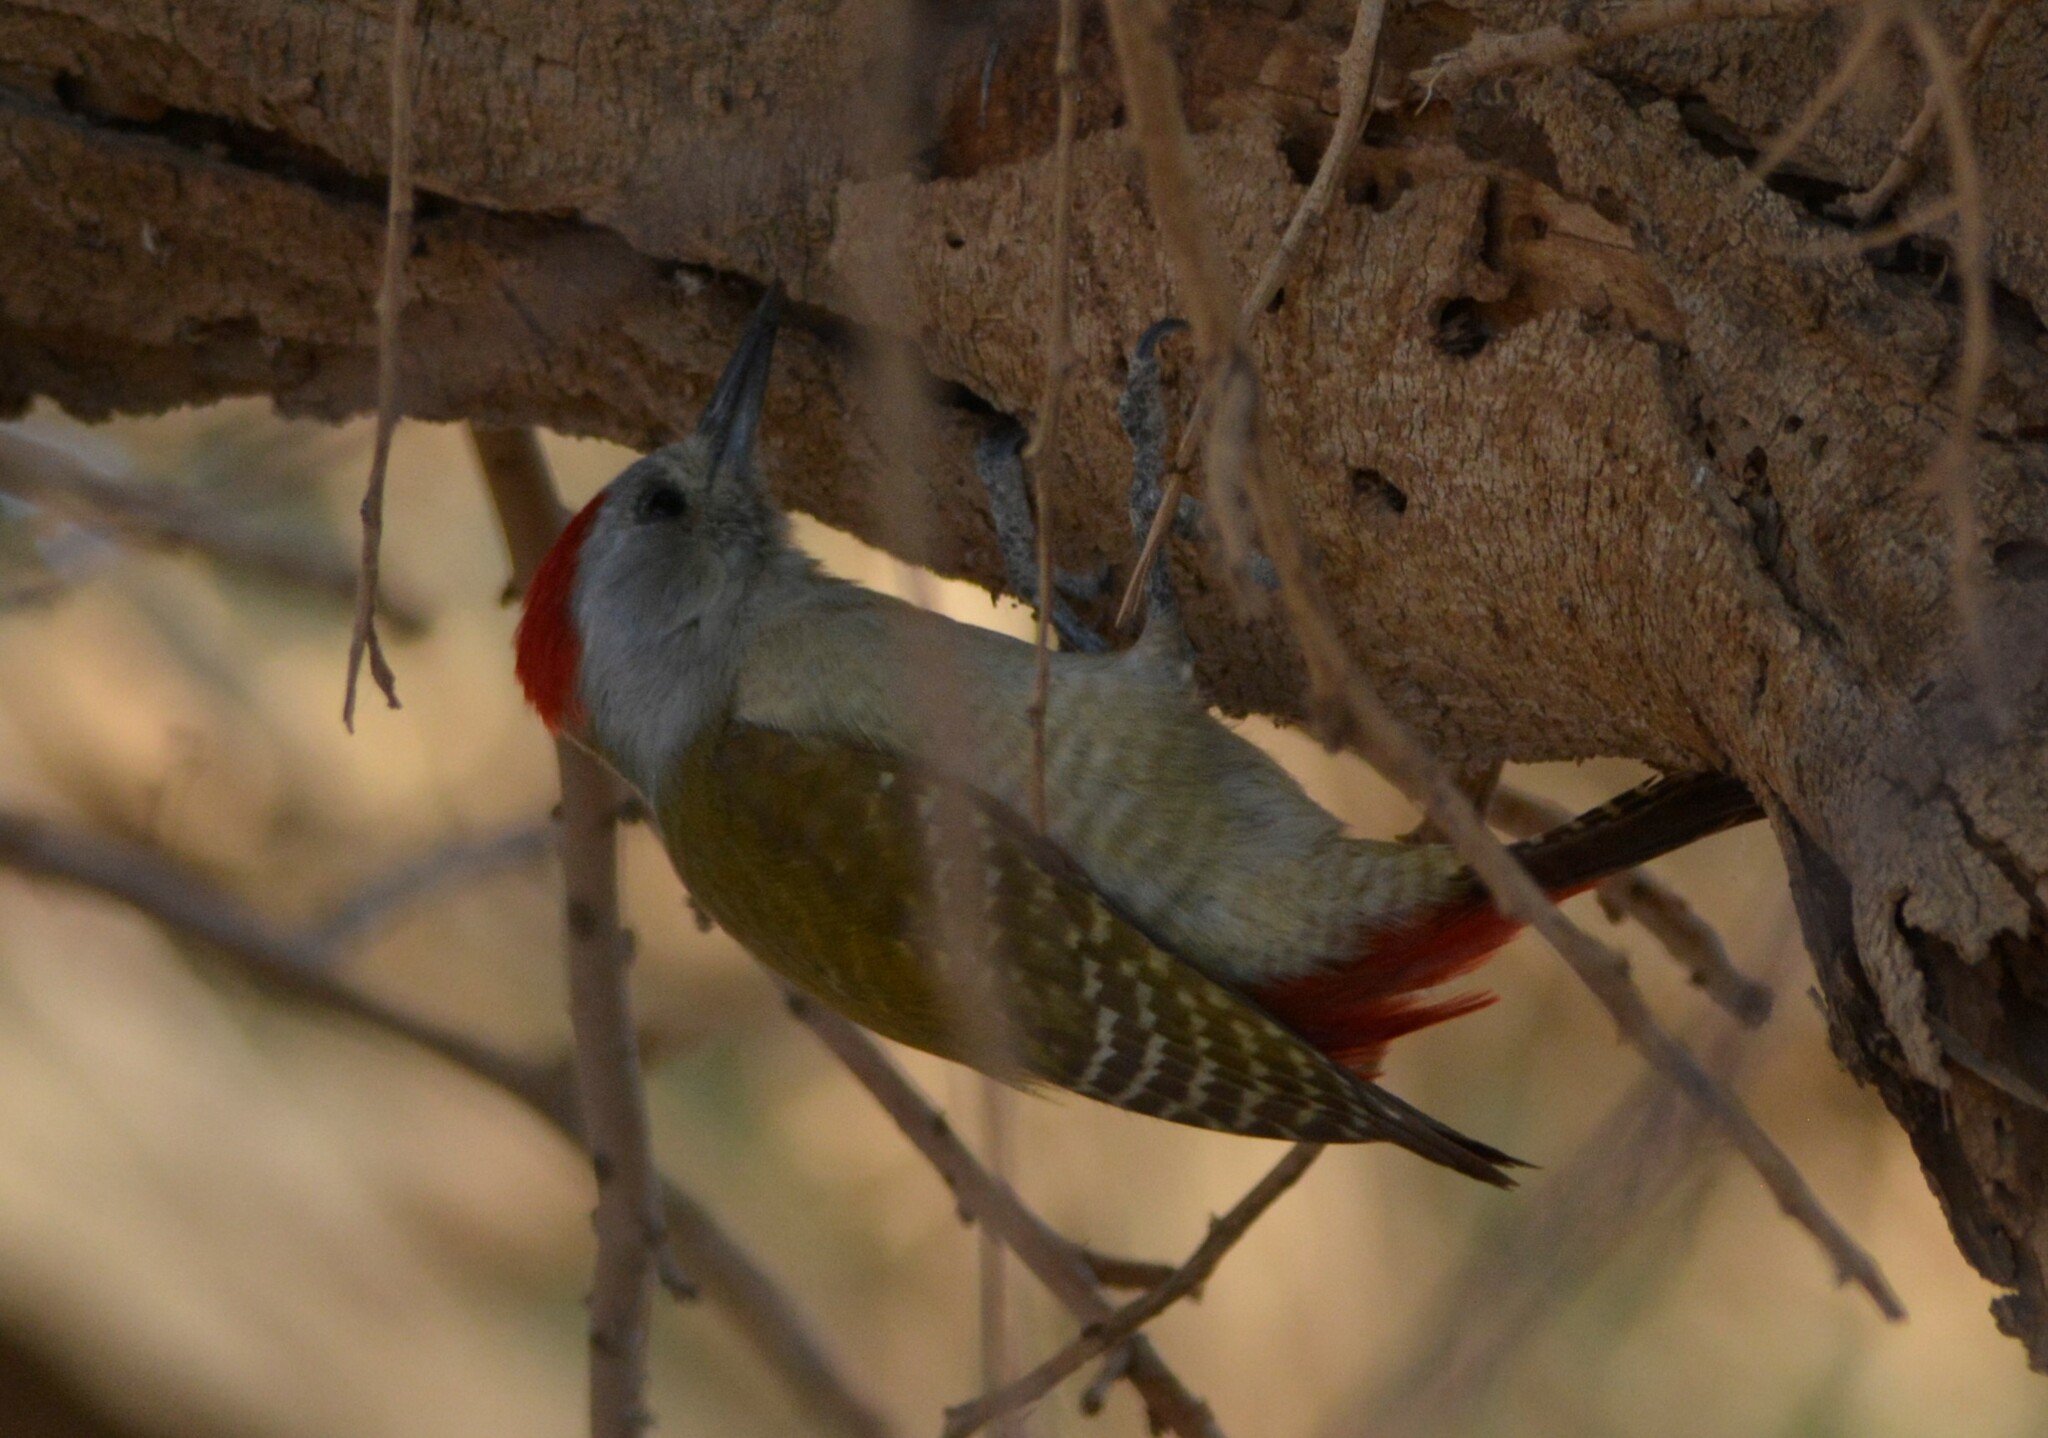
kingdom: Animalia
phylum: Chordata
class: Aves
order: Piciformes
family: Picidae
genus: Dendropicos
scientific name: Dendropicos goertae
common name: African grey woodpecker
